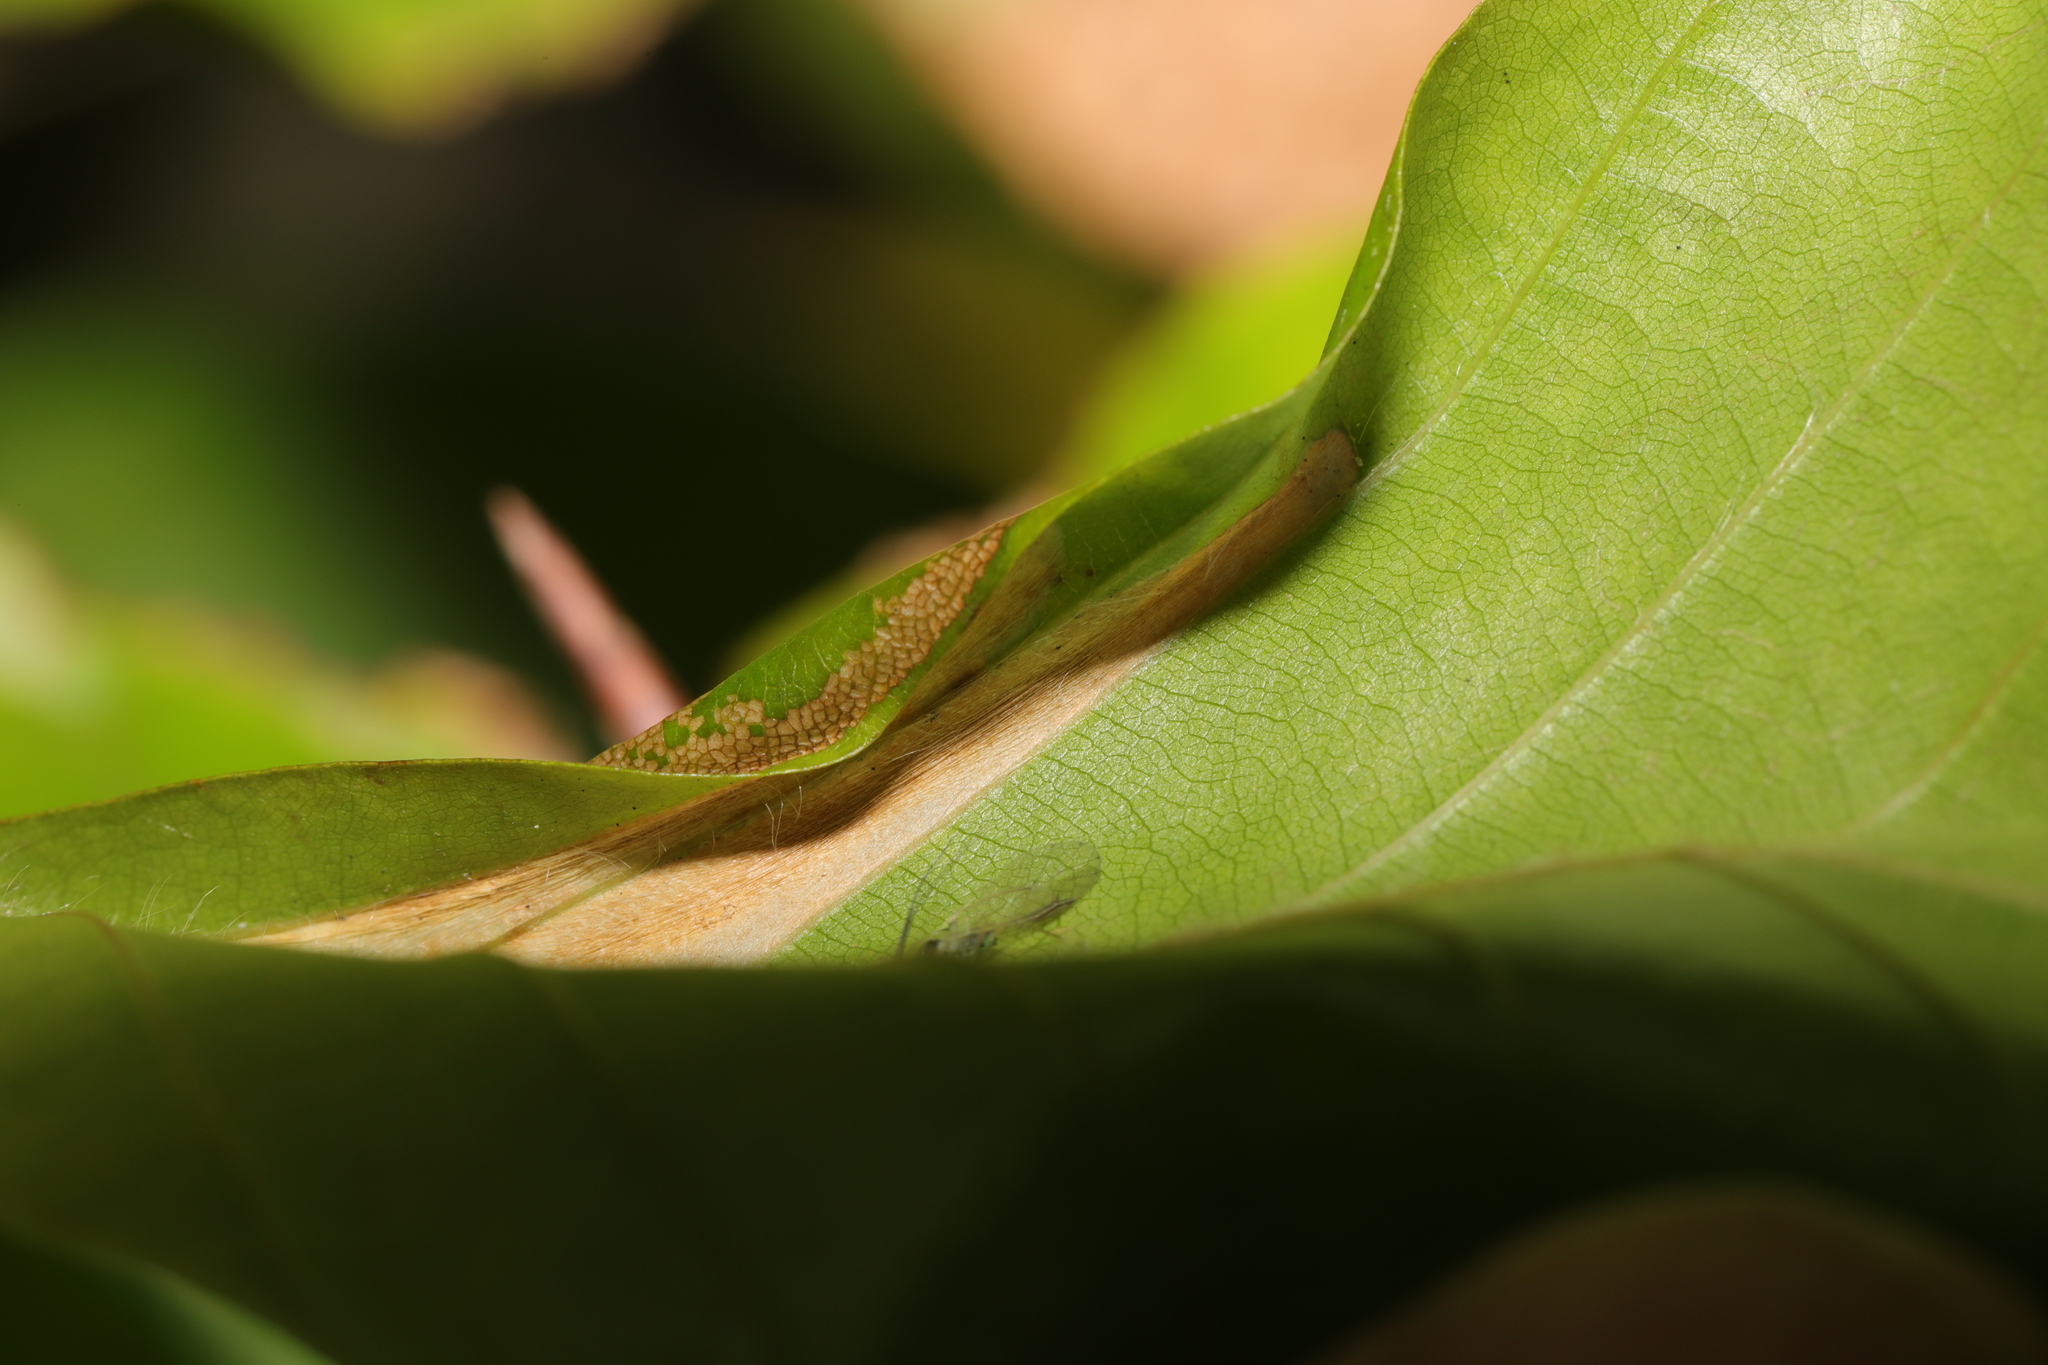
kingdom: Animalia
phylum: Arthropoda
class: Insecta
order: Lepidoptera
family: Gracillariidae
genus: Phyllonorycter
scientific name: Phyllonorycter maestingella
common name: Beech midget
